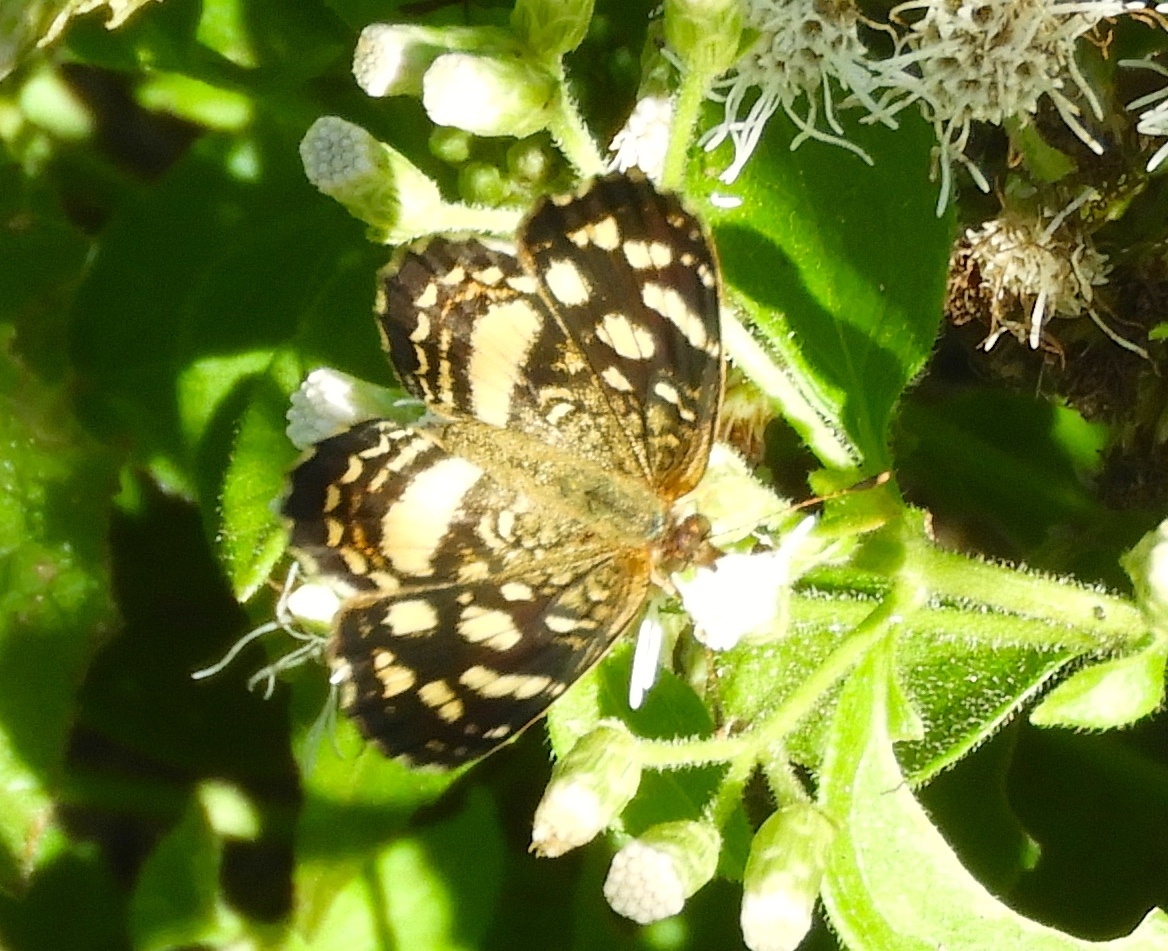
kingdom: Animalia
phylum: Arthropoda
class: Insecta
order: Lepidoptera
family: Nymphalidae
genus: Anthanassa
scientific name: Anthanassa tulcis
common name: Pale-banded crescent
